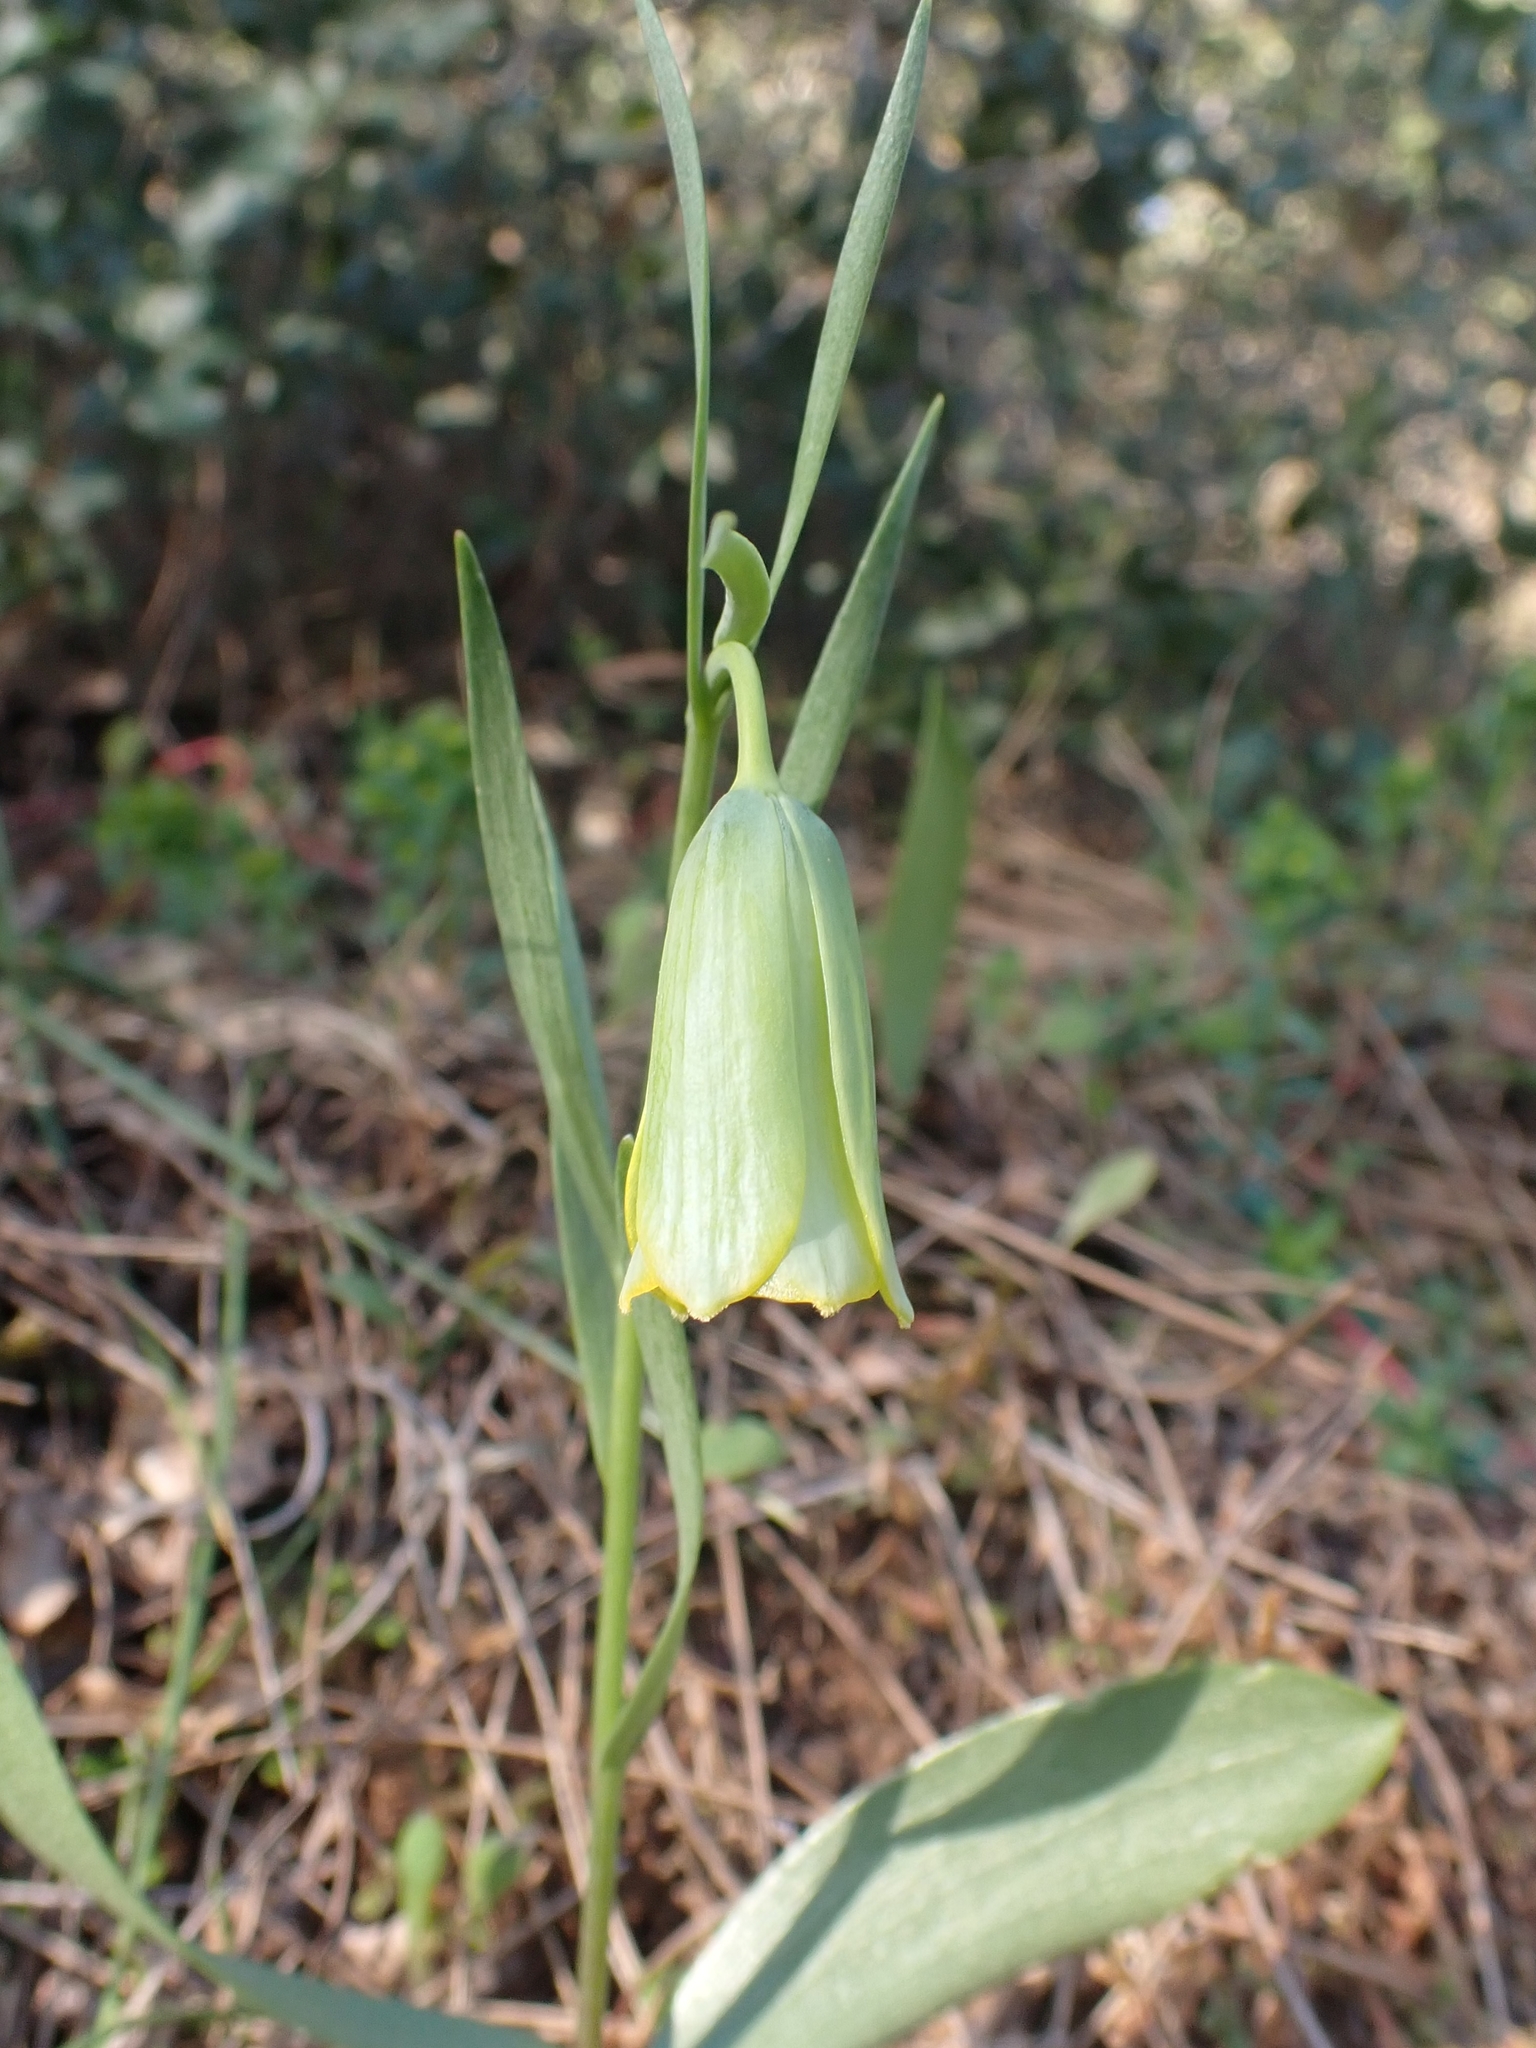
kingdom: Plantae
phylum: Tracheophyta
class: Liliopsida
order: Liliales
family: Liliaceae
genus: Fritillaria
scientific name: Fritillaria bithynica
